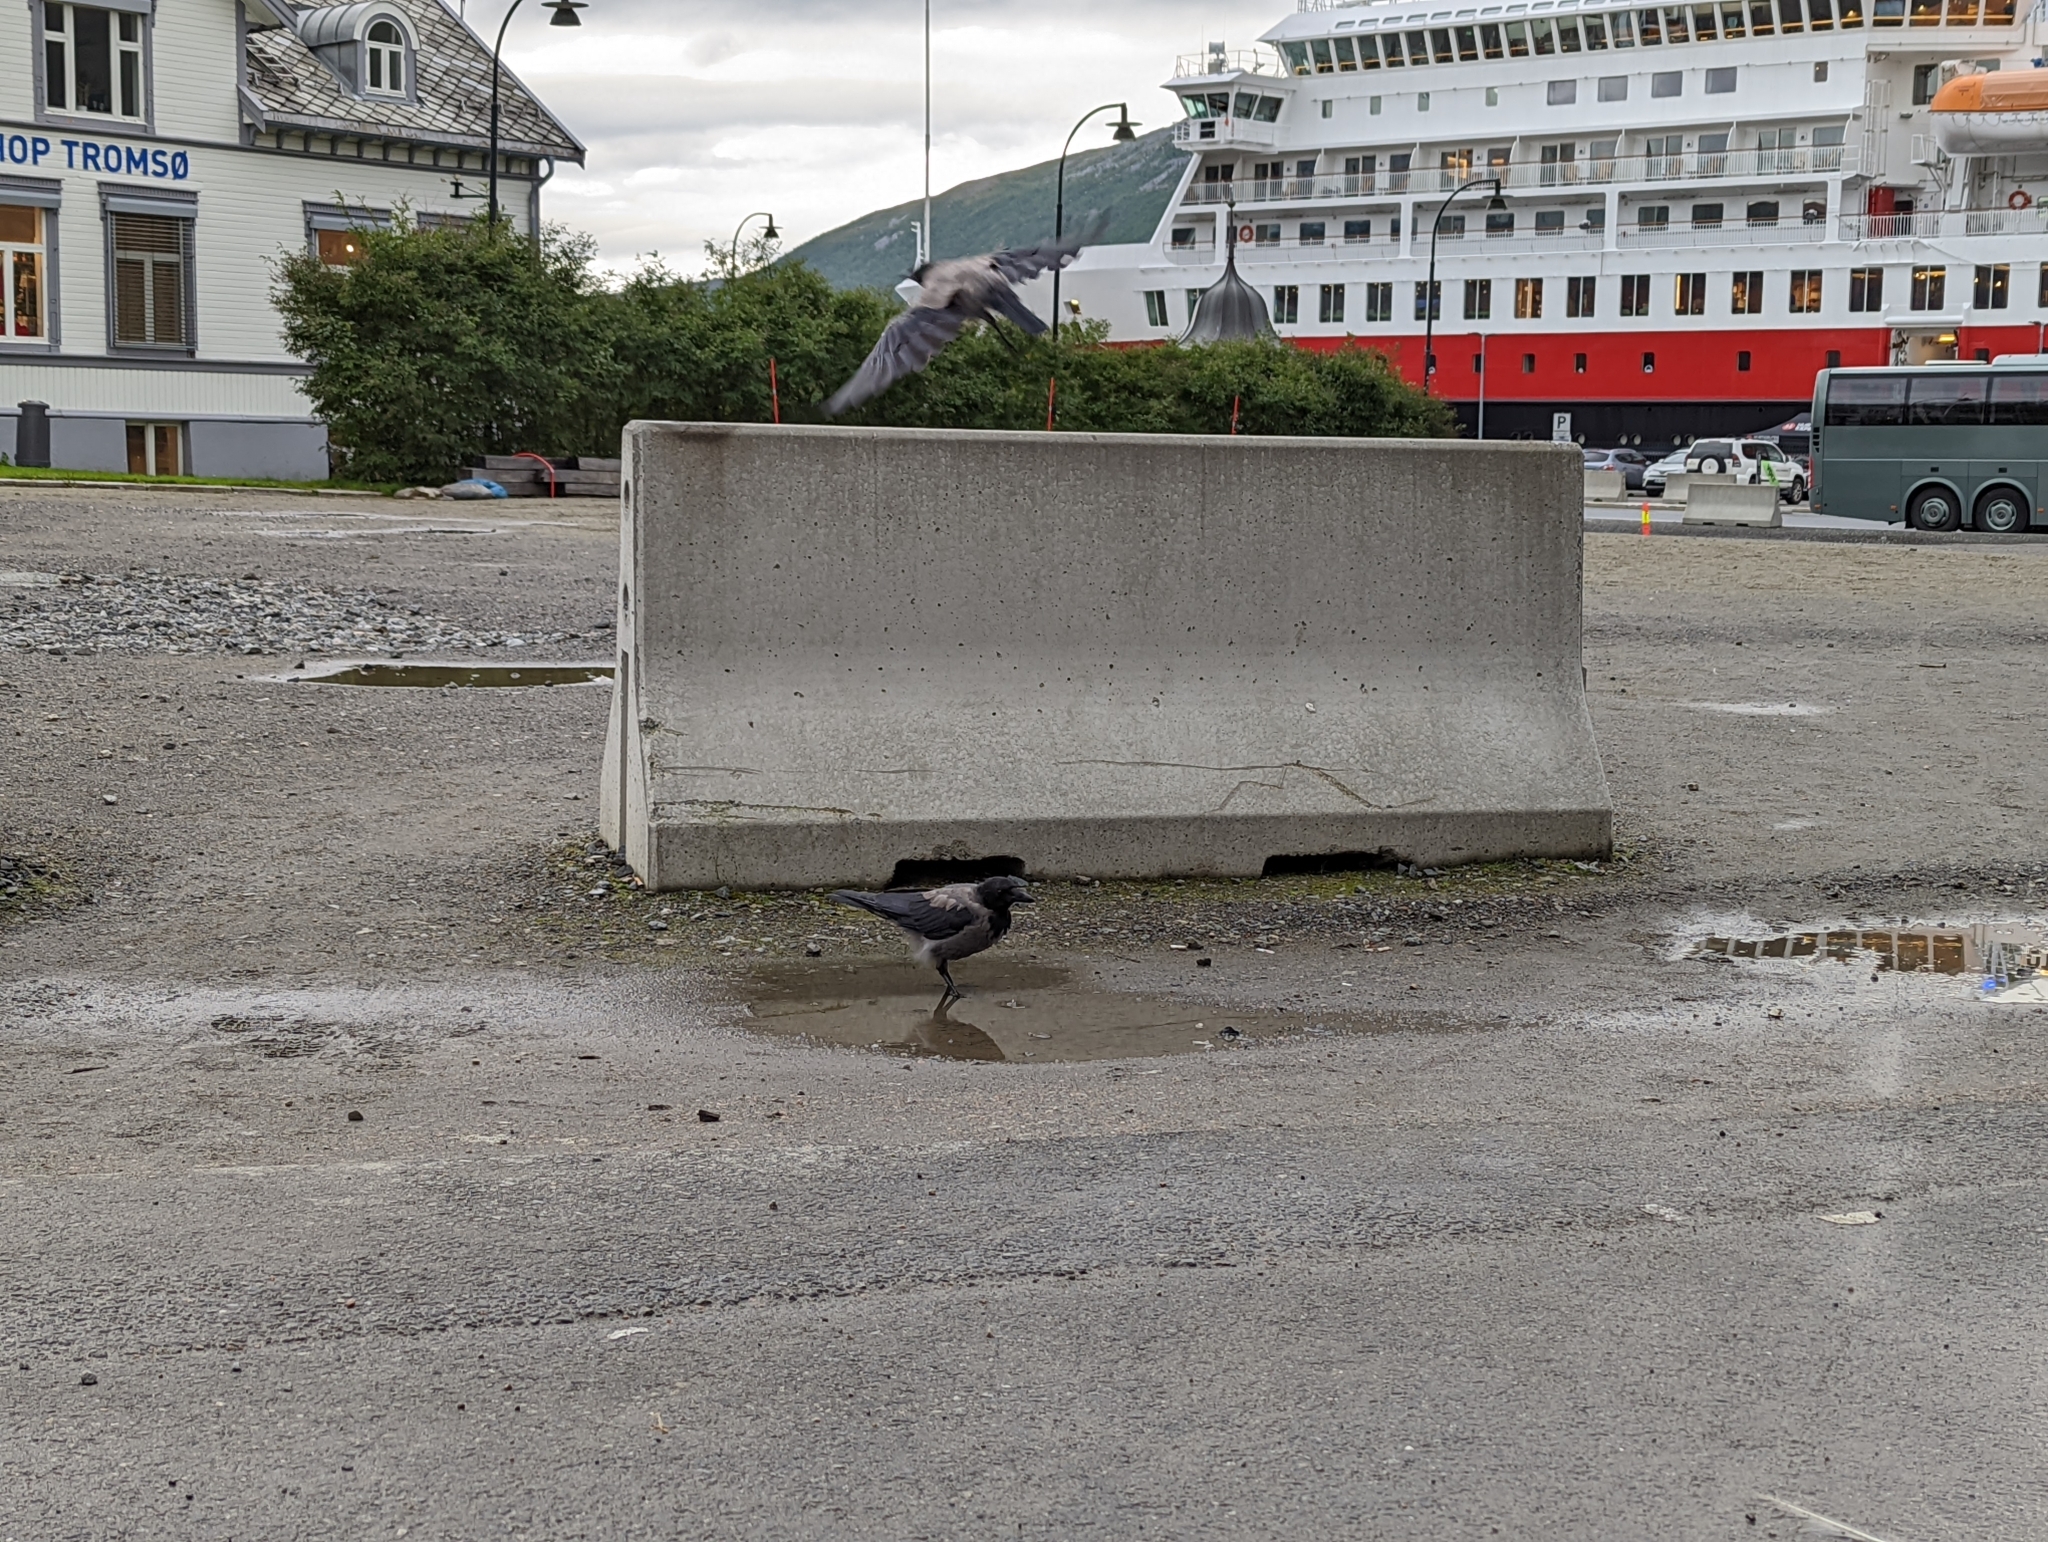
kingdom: Animalia
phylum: Chordata
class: Aves
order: Passeriformes
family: Corvidae
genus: Corvus
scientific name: Corvus cornix
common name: Hooded crow
